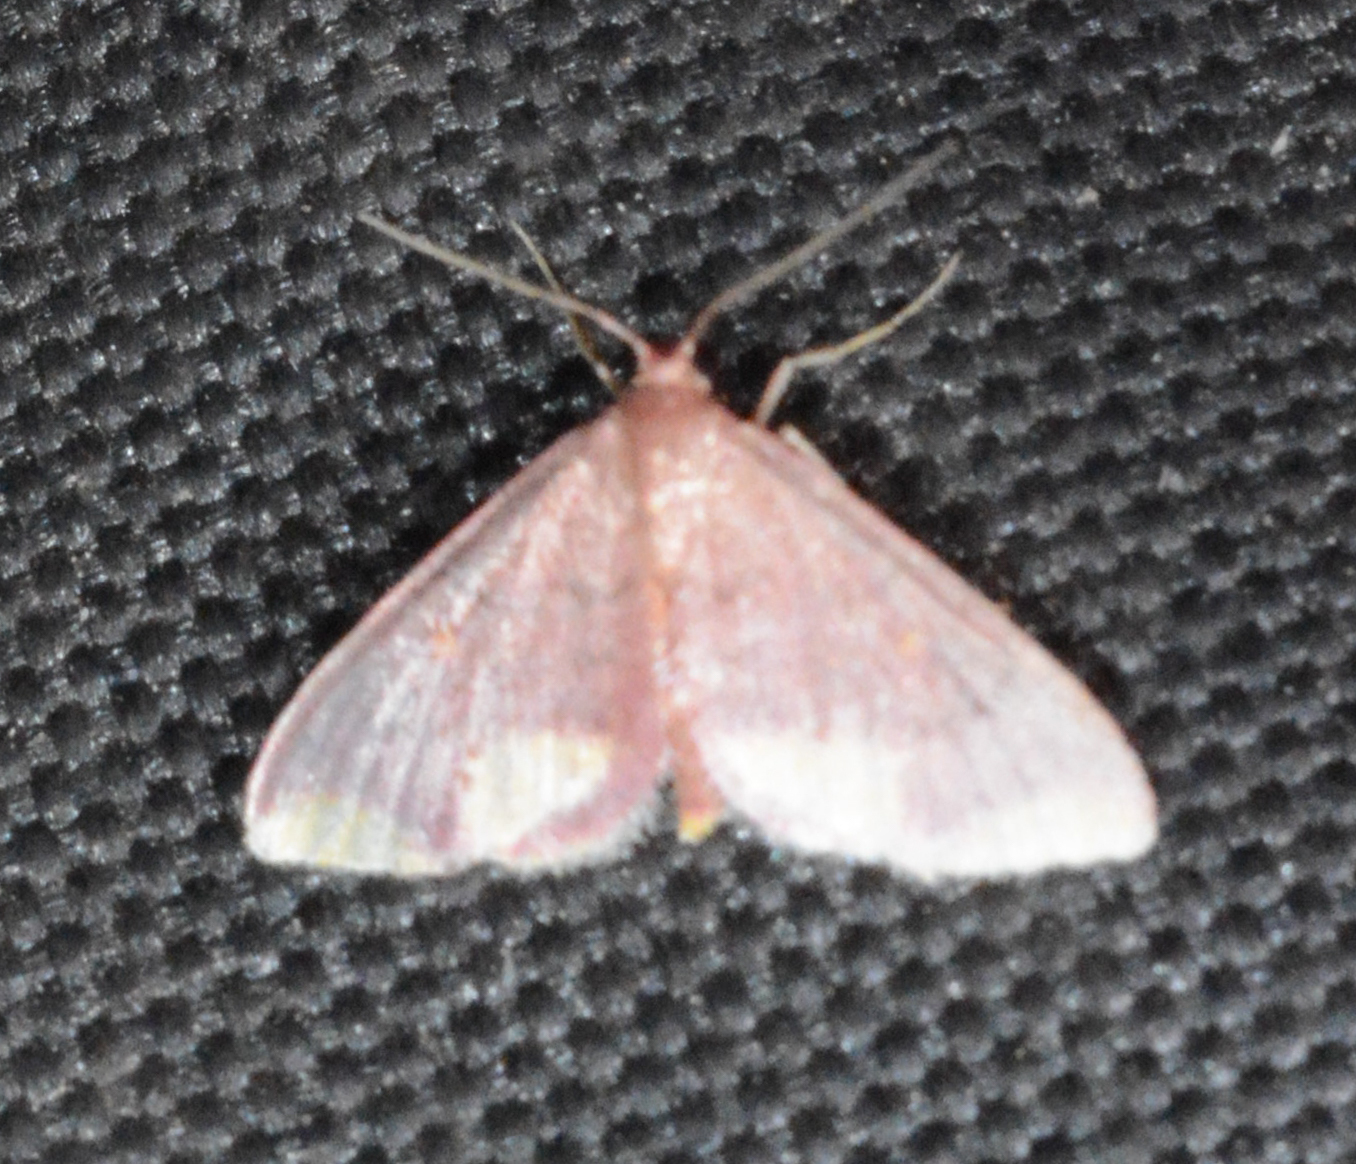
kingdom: Animalia
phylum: Arthropoda
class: Insecta
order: Lepidoptera
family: Geometridae
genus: Lophosis
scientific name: Lophosis labeculata
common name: Stained lophosis moth
